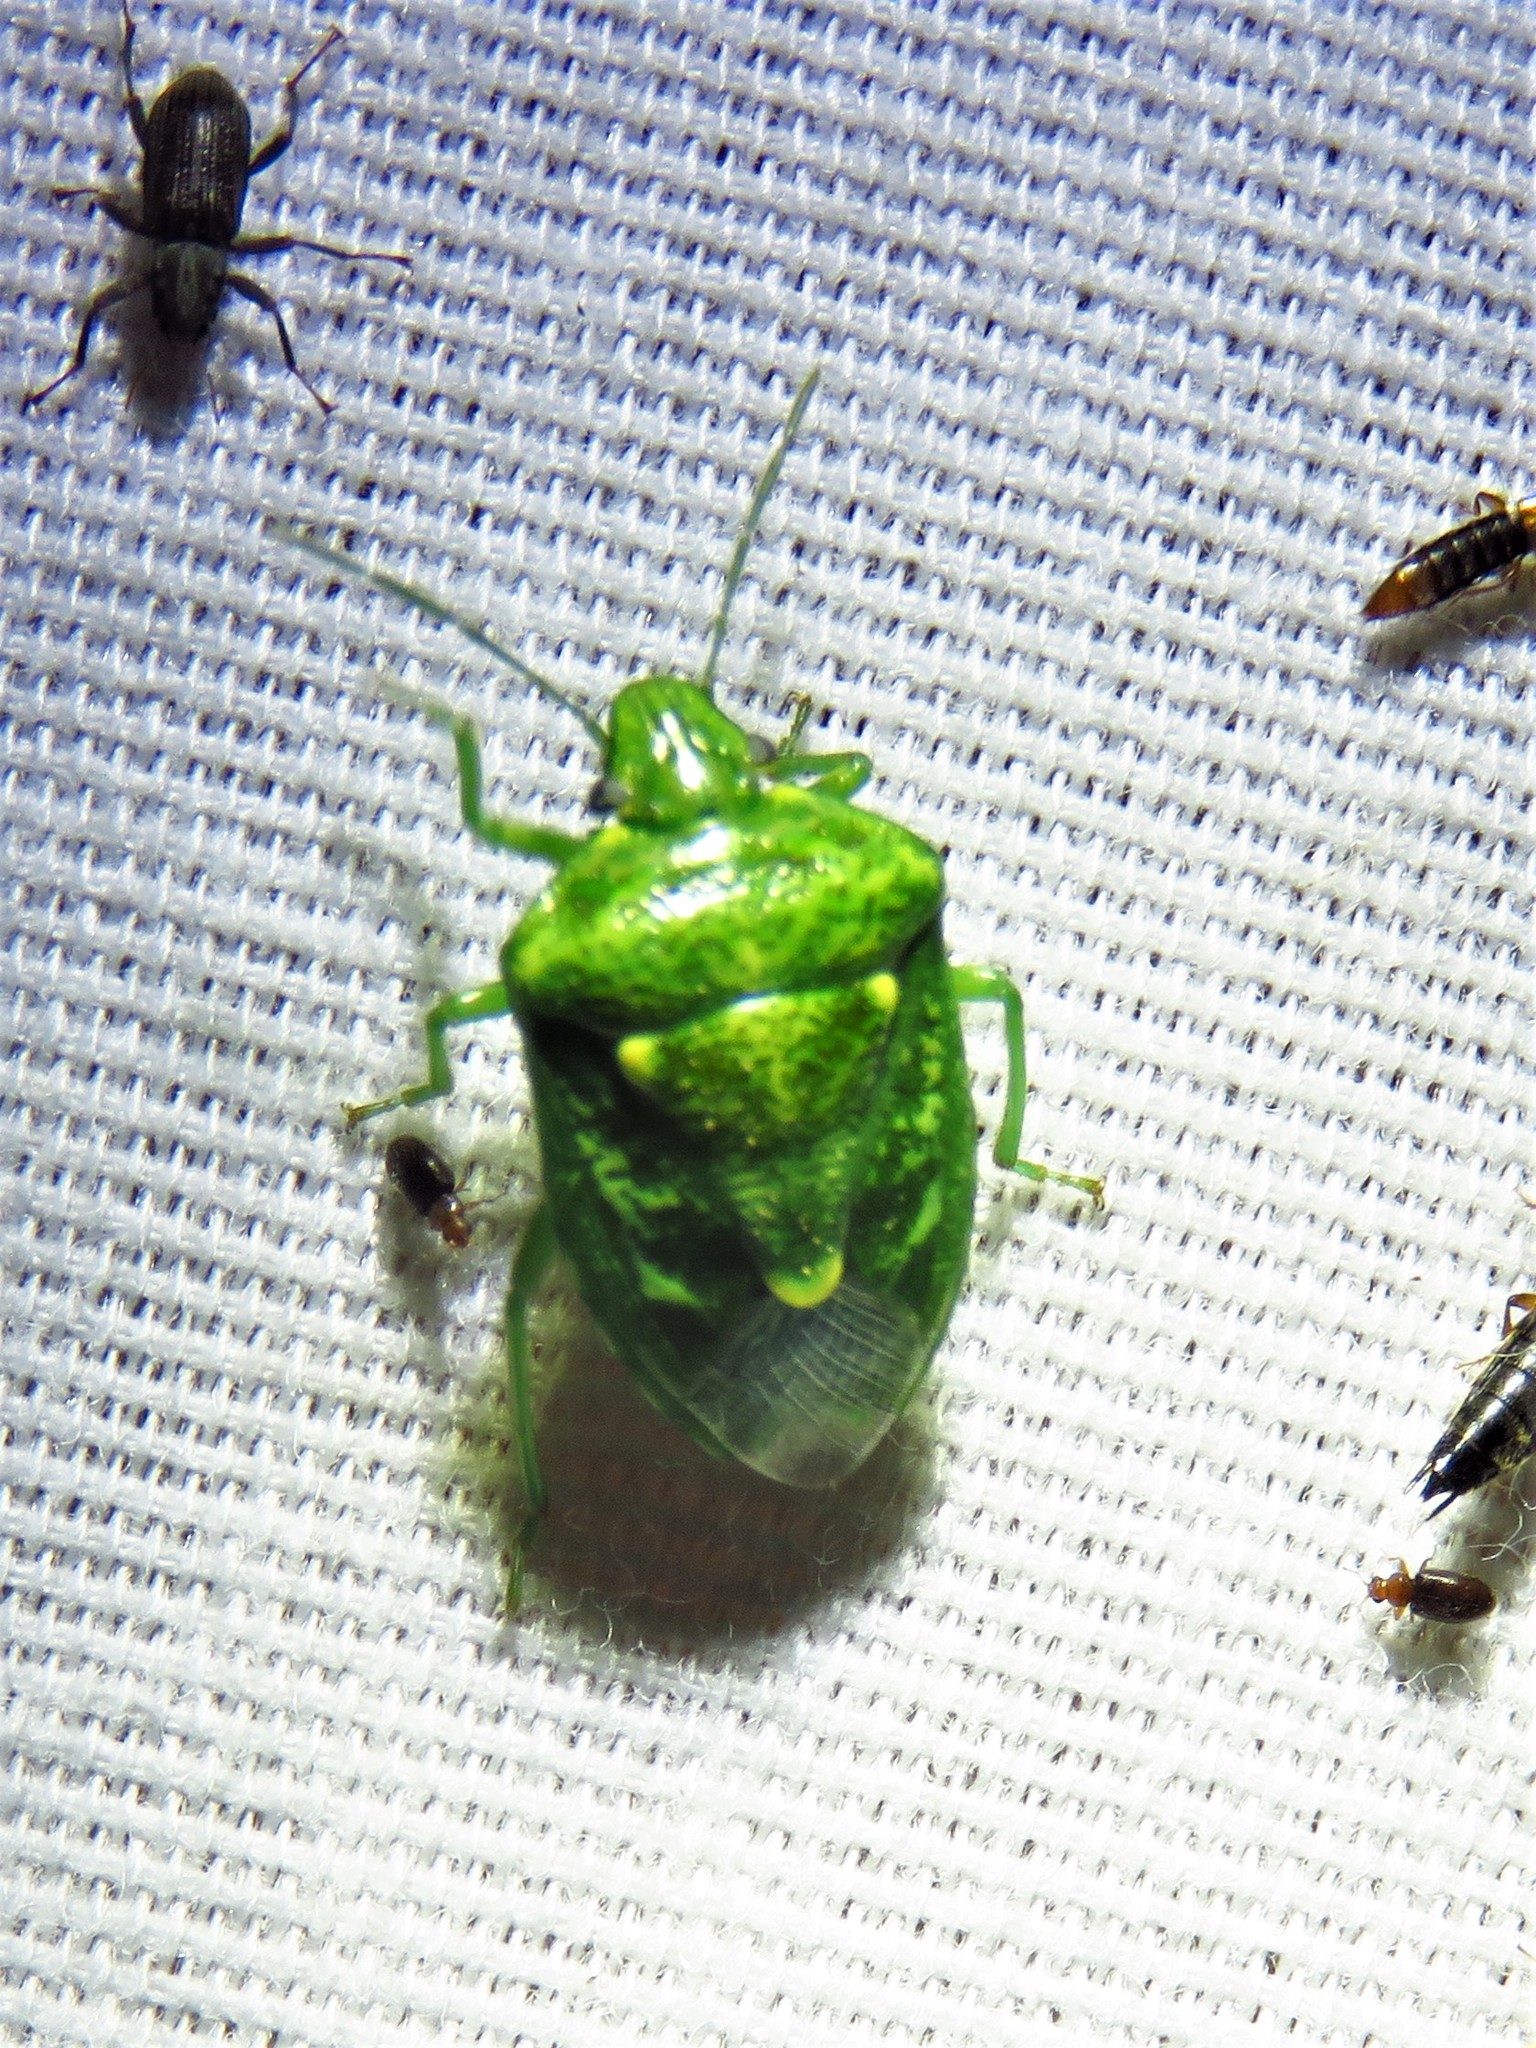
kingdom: Animalia
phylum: Arthropoda
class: Insecta
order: Hemiptera
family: Pentatomidae
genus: Banasa
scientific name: Banasa euchlora
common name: Cedar berry bug
